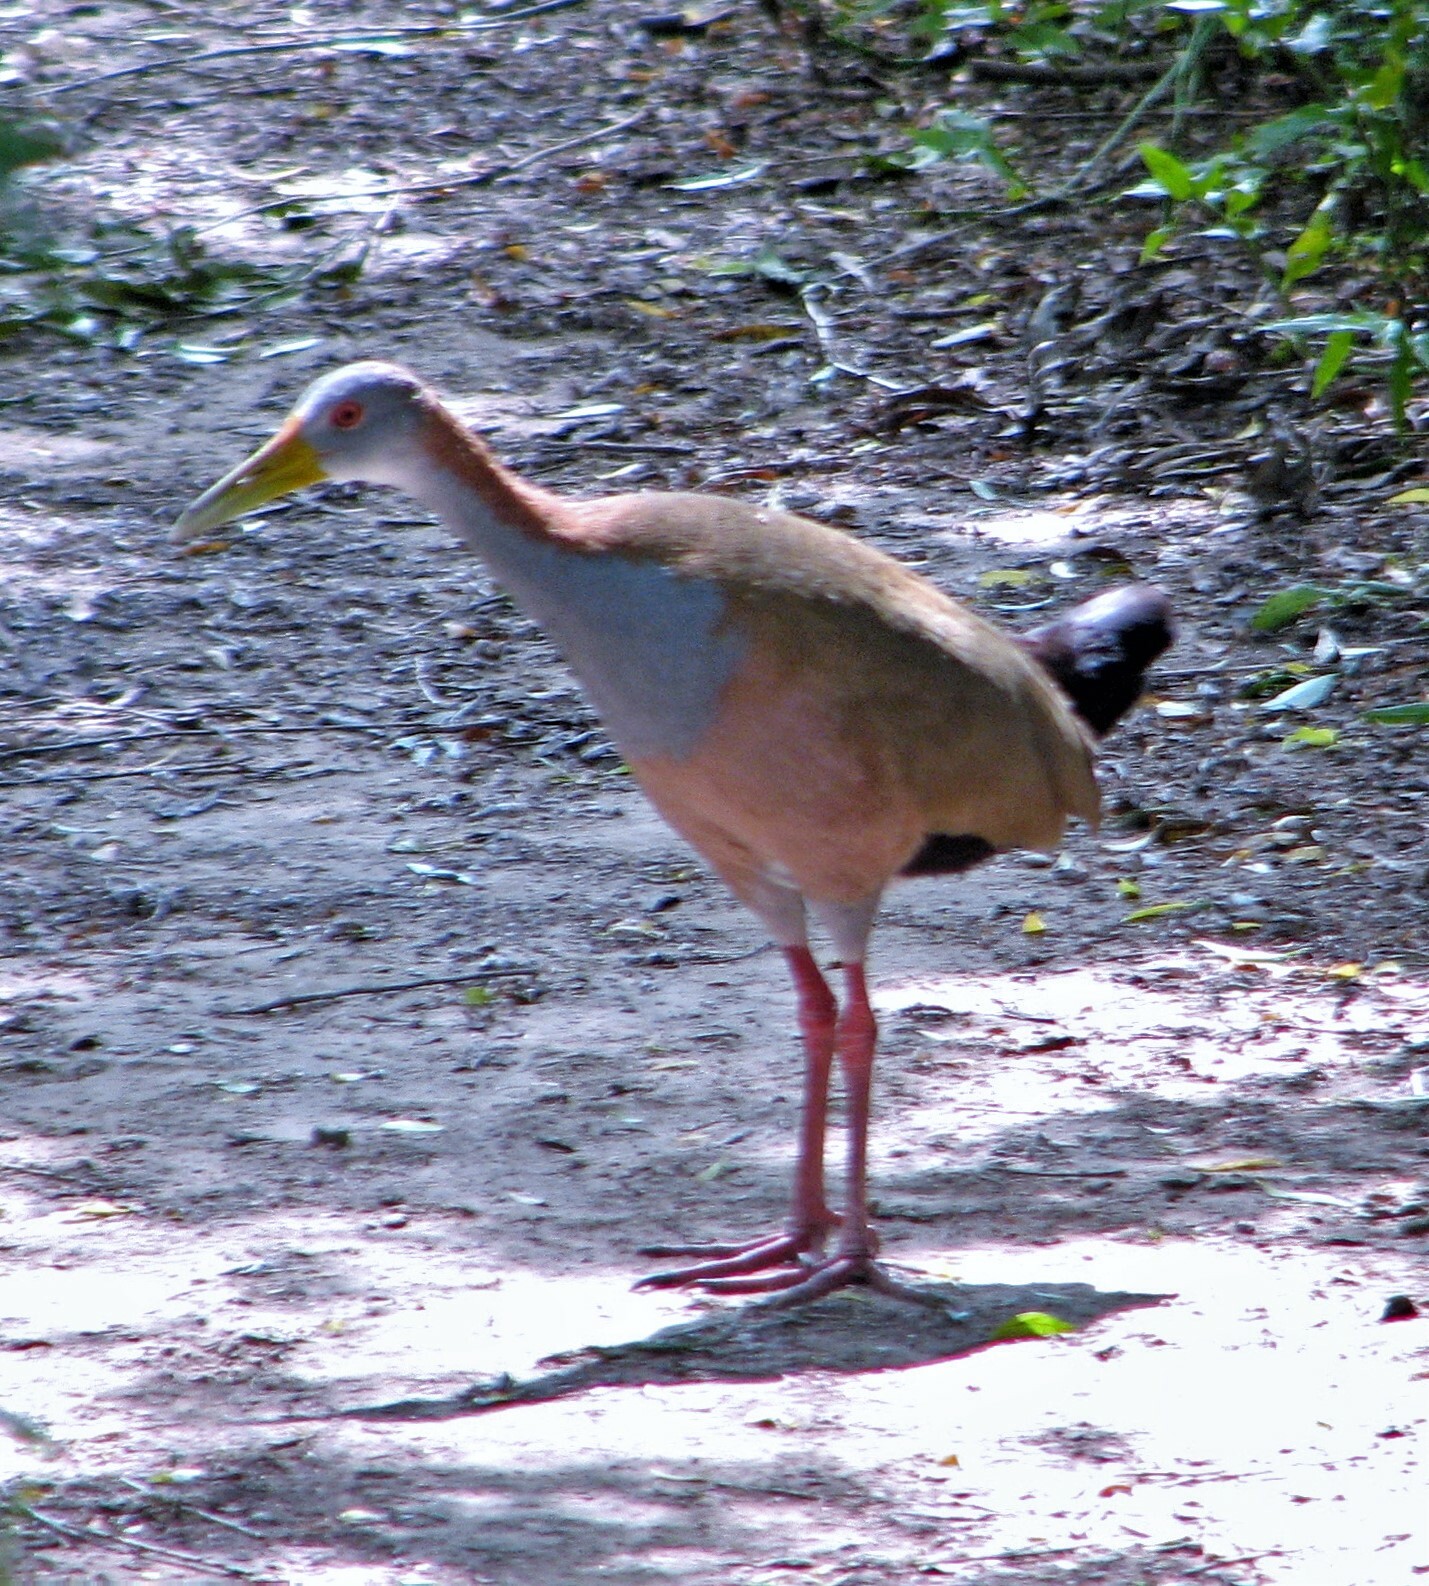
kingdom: Animalia
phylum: Chordata
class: Aves
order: Gruiformes
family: Rallidae
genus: Aramides
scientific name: Aramides ypecaha
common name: Giant wood rail
